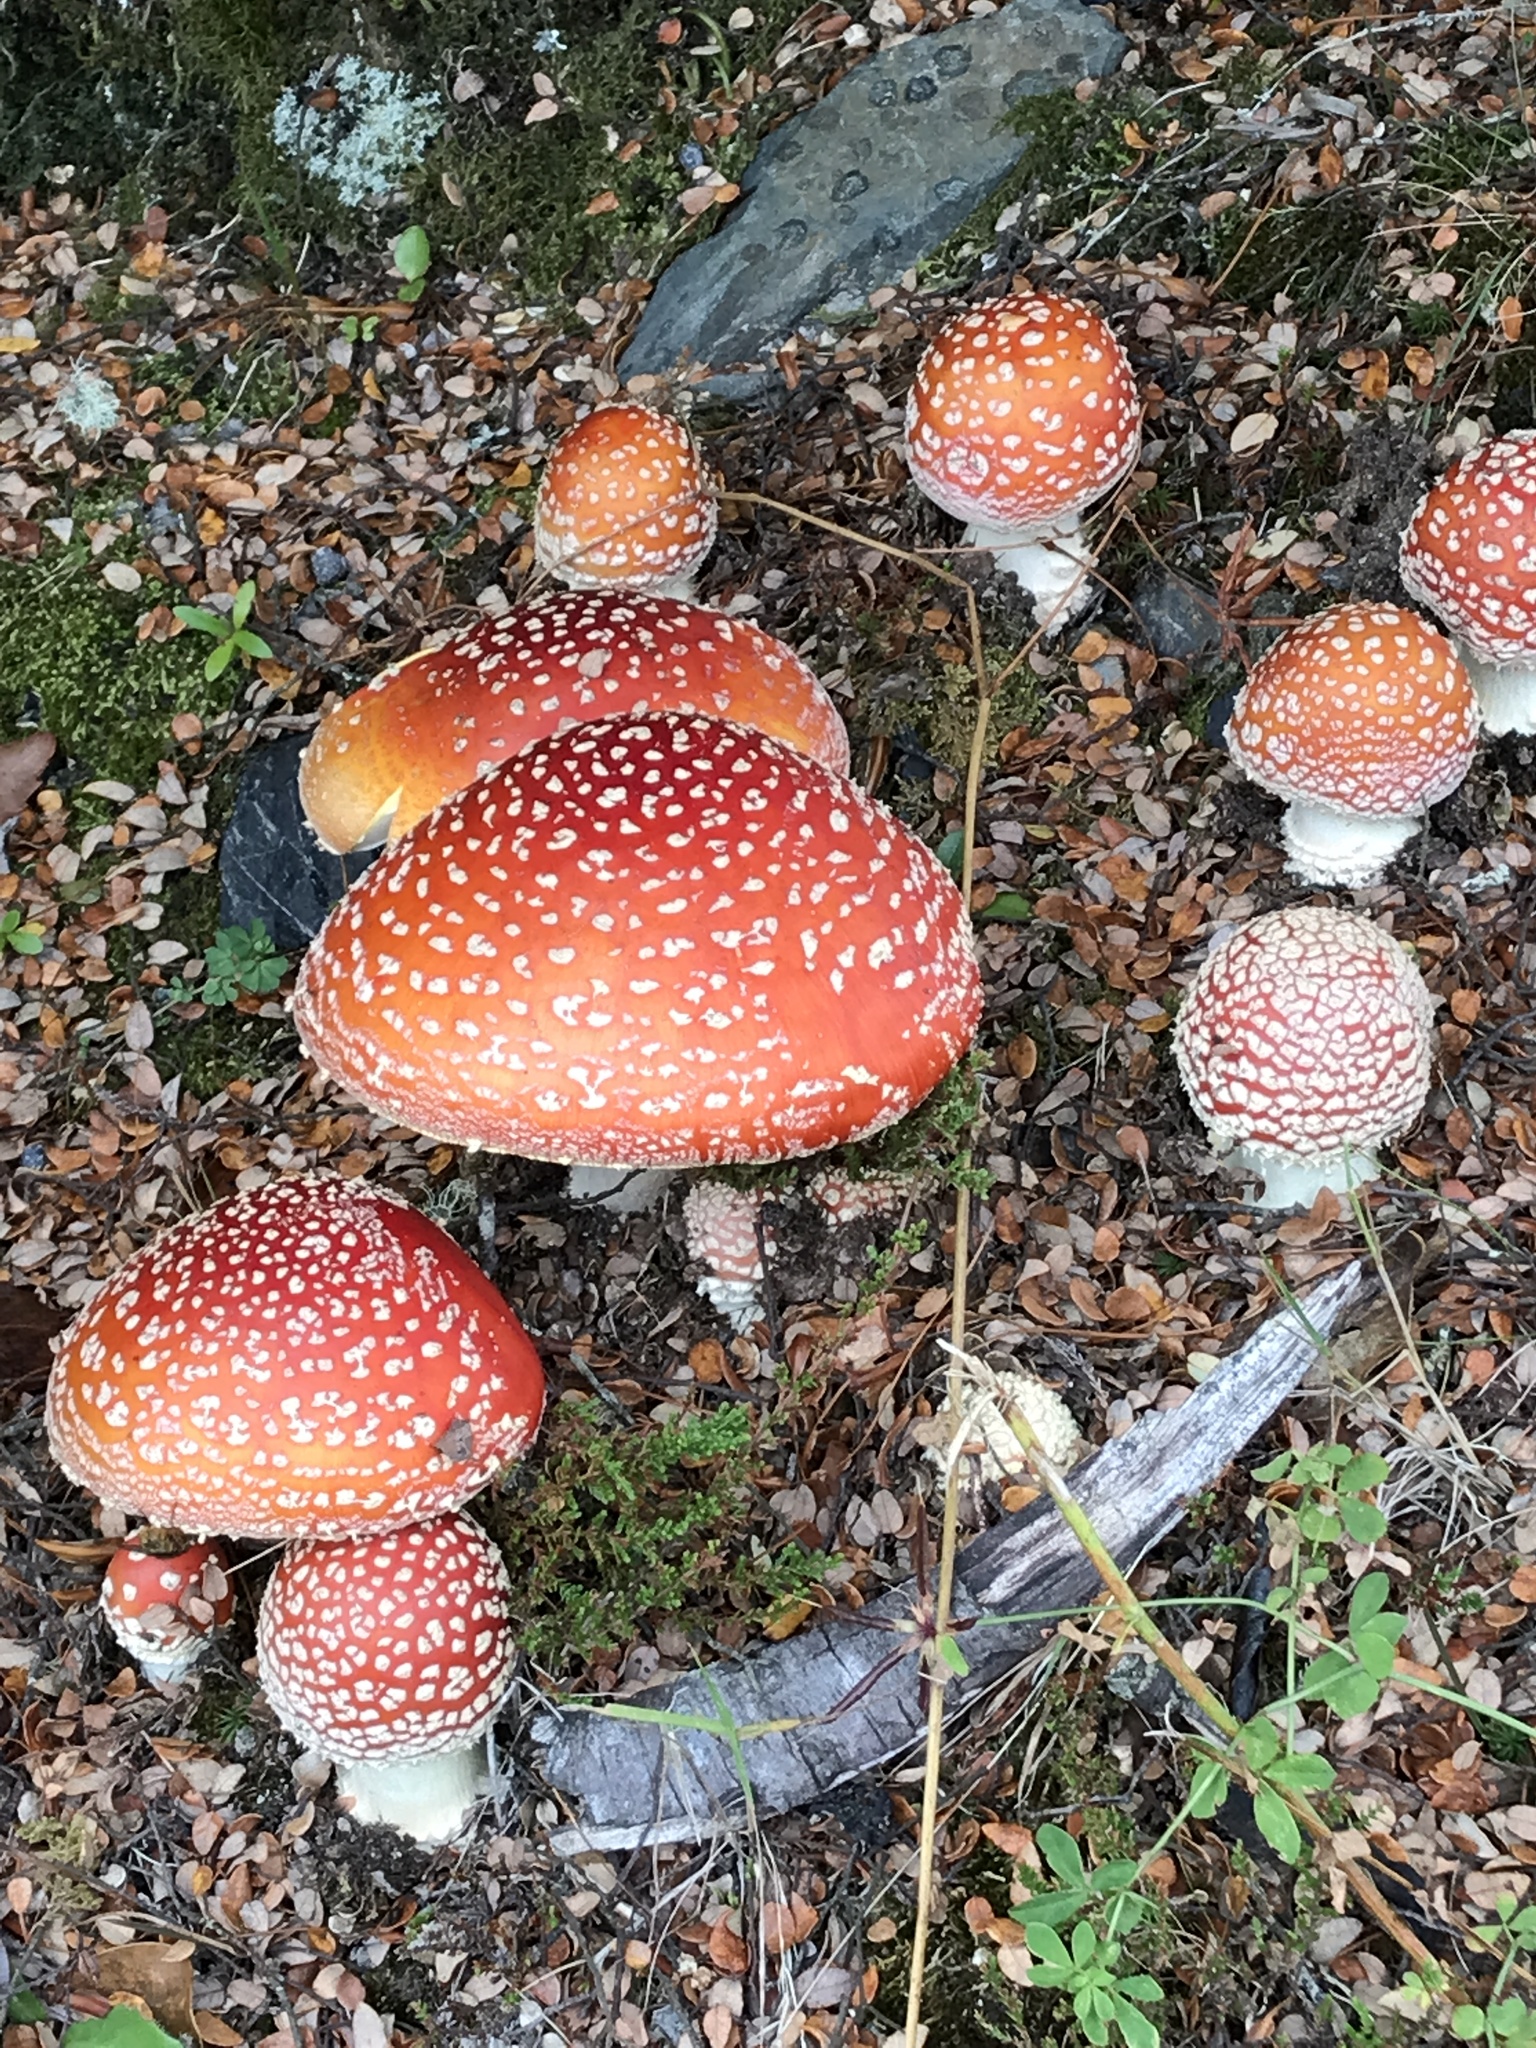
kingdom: Fungi
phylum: Basidiomycota
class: Agaricomycetes
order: Agaricales
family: Amanitaceae
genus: Amanita
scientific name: Amanita muscaria
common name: Fly agaric
